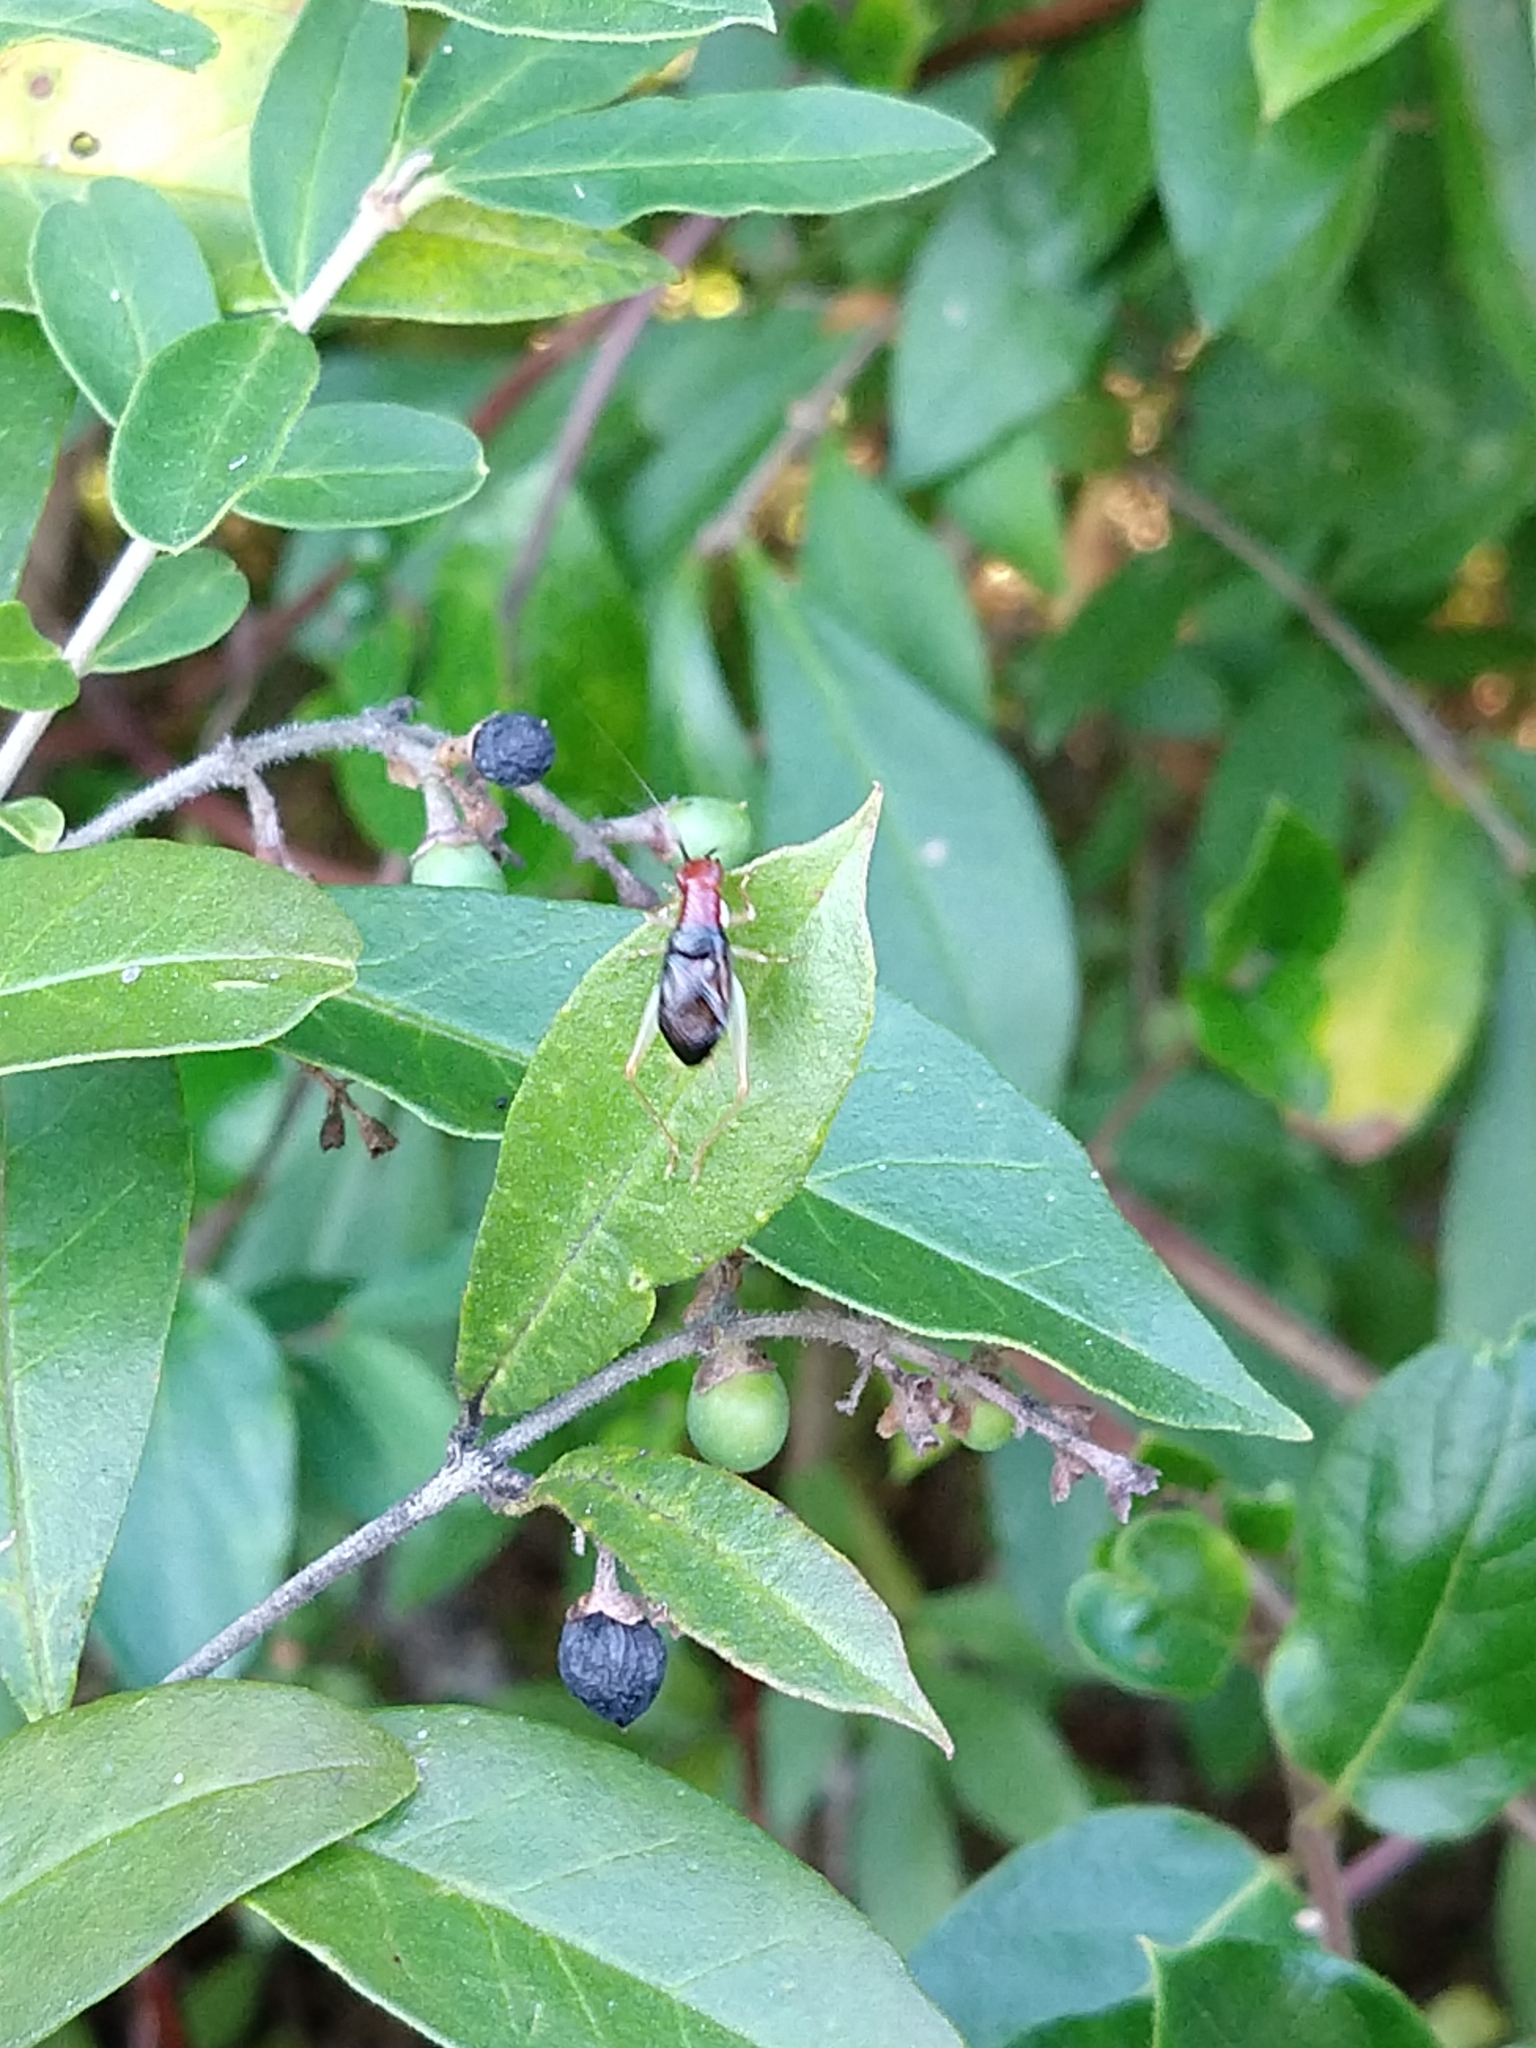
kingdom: Animalia
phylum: Arthropoda
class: Insecta
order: Orthoptera
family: Trigonidiidae
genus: Phyllopalpus
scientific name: Phyllopalpus pulchellus
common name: Handsome trig
